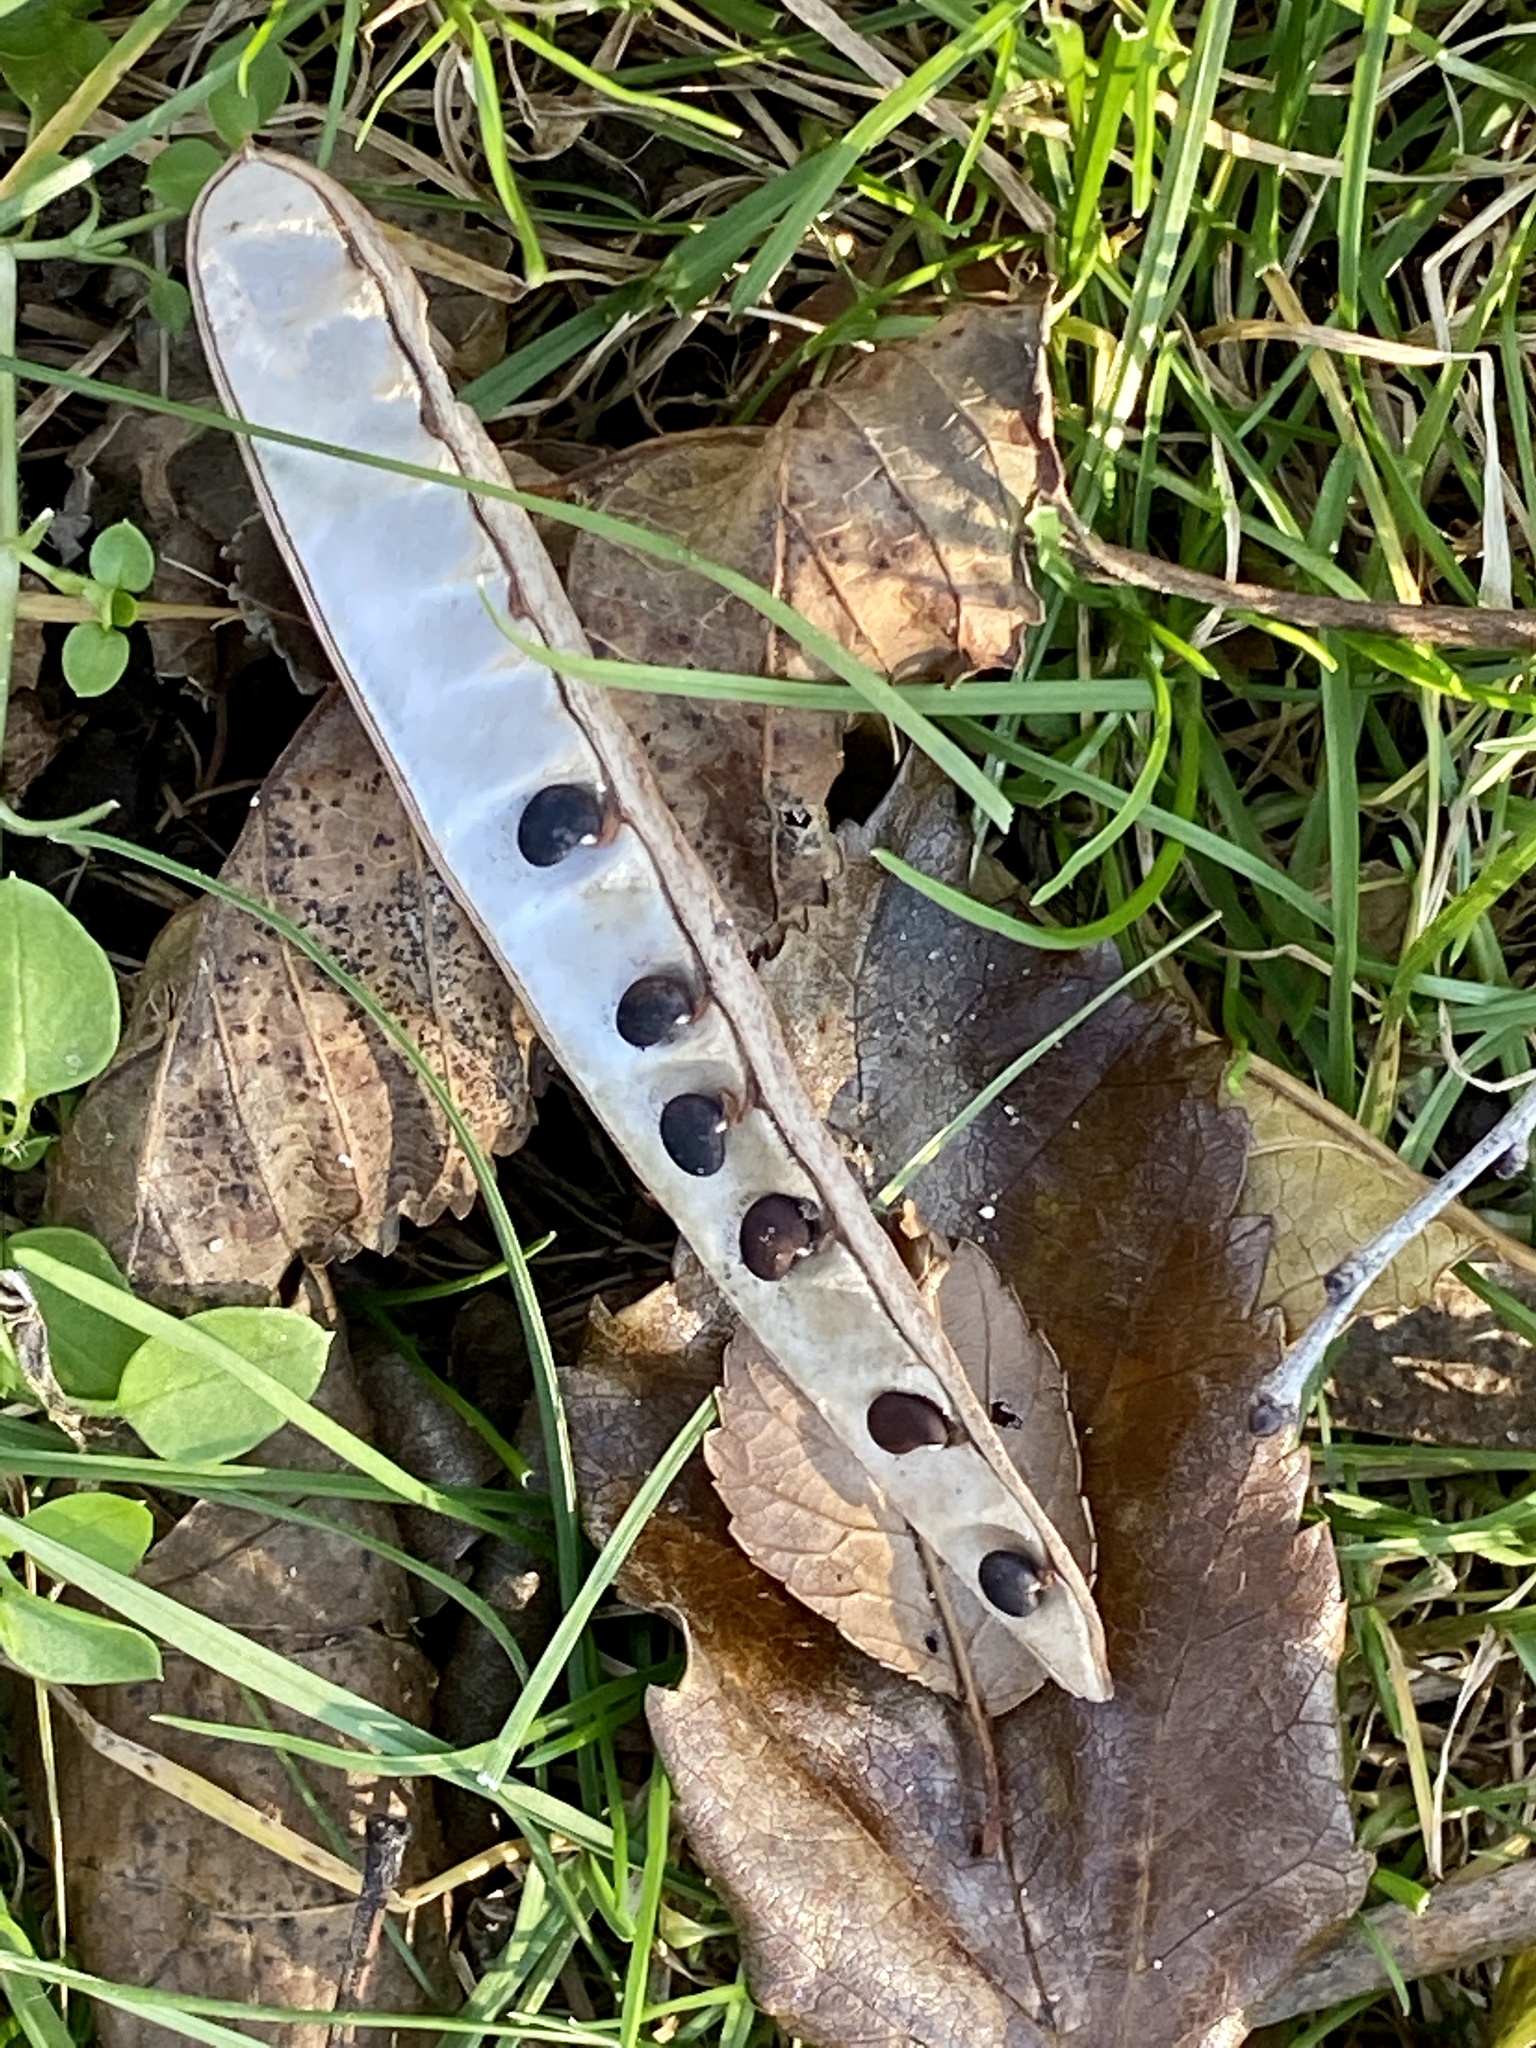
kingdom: Plantae
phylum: Tracheophyta
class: Magnoliopsida
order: Fabales
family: Fabaceae
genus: Robinia
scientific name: Robinia pseudoacacia
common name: Black locust
